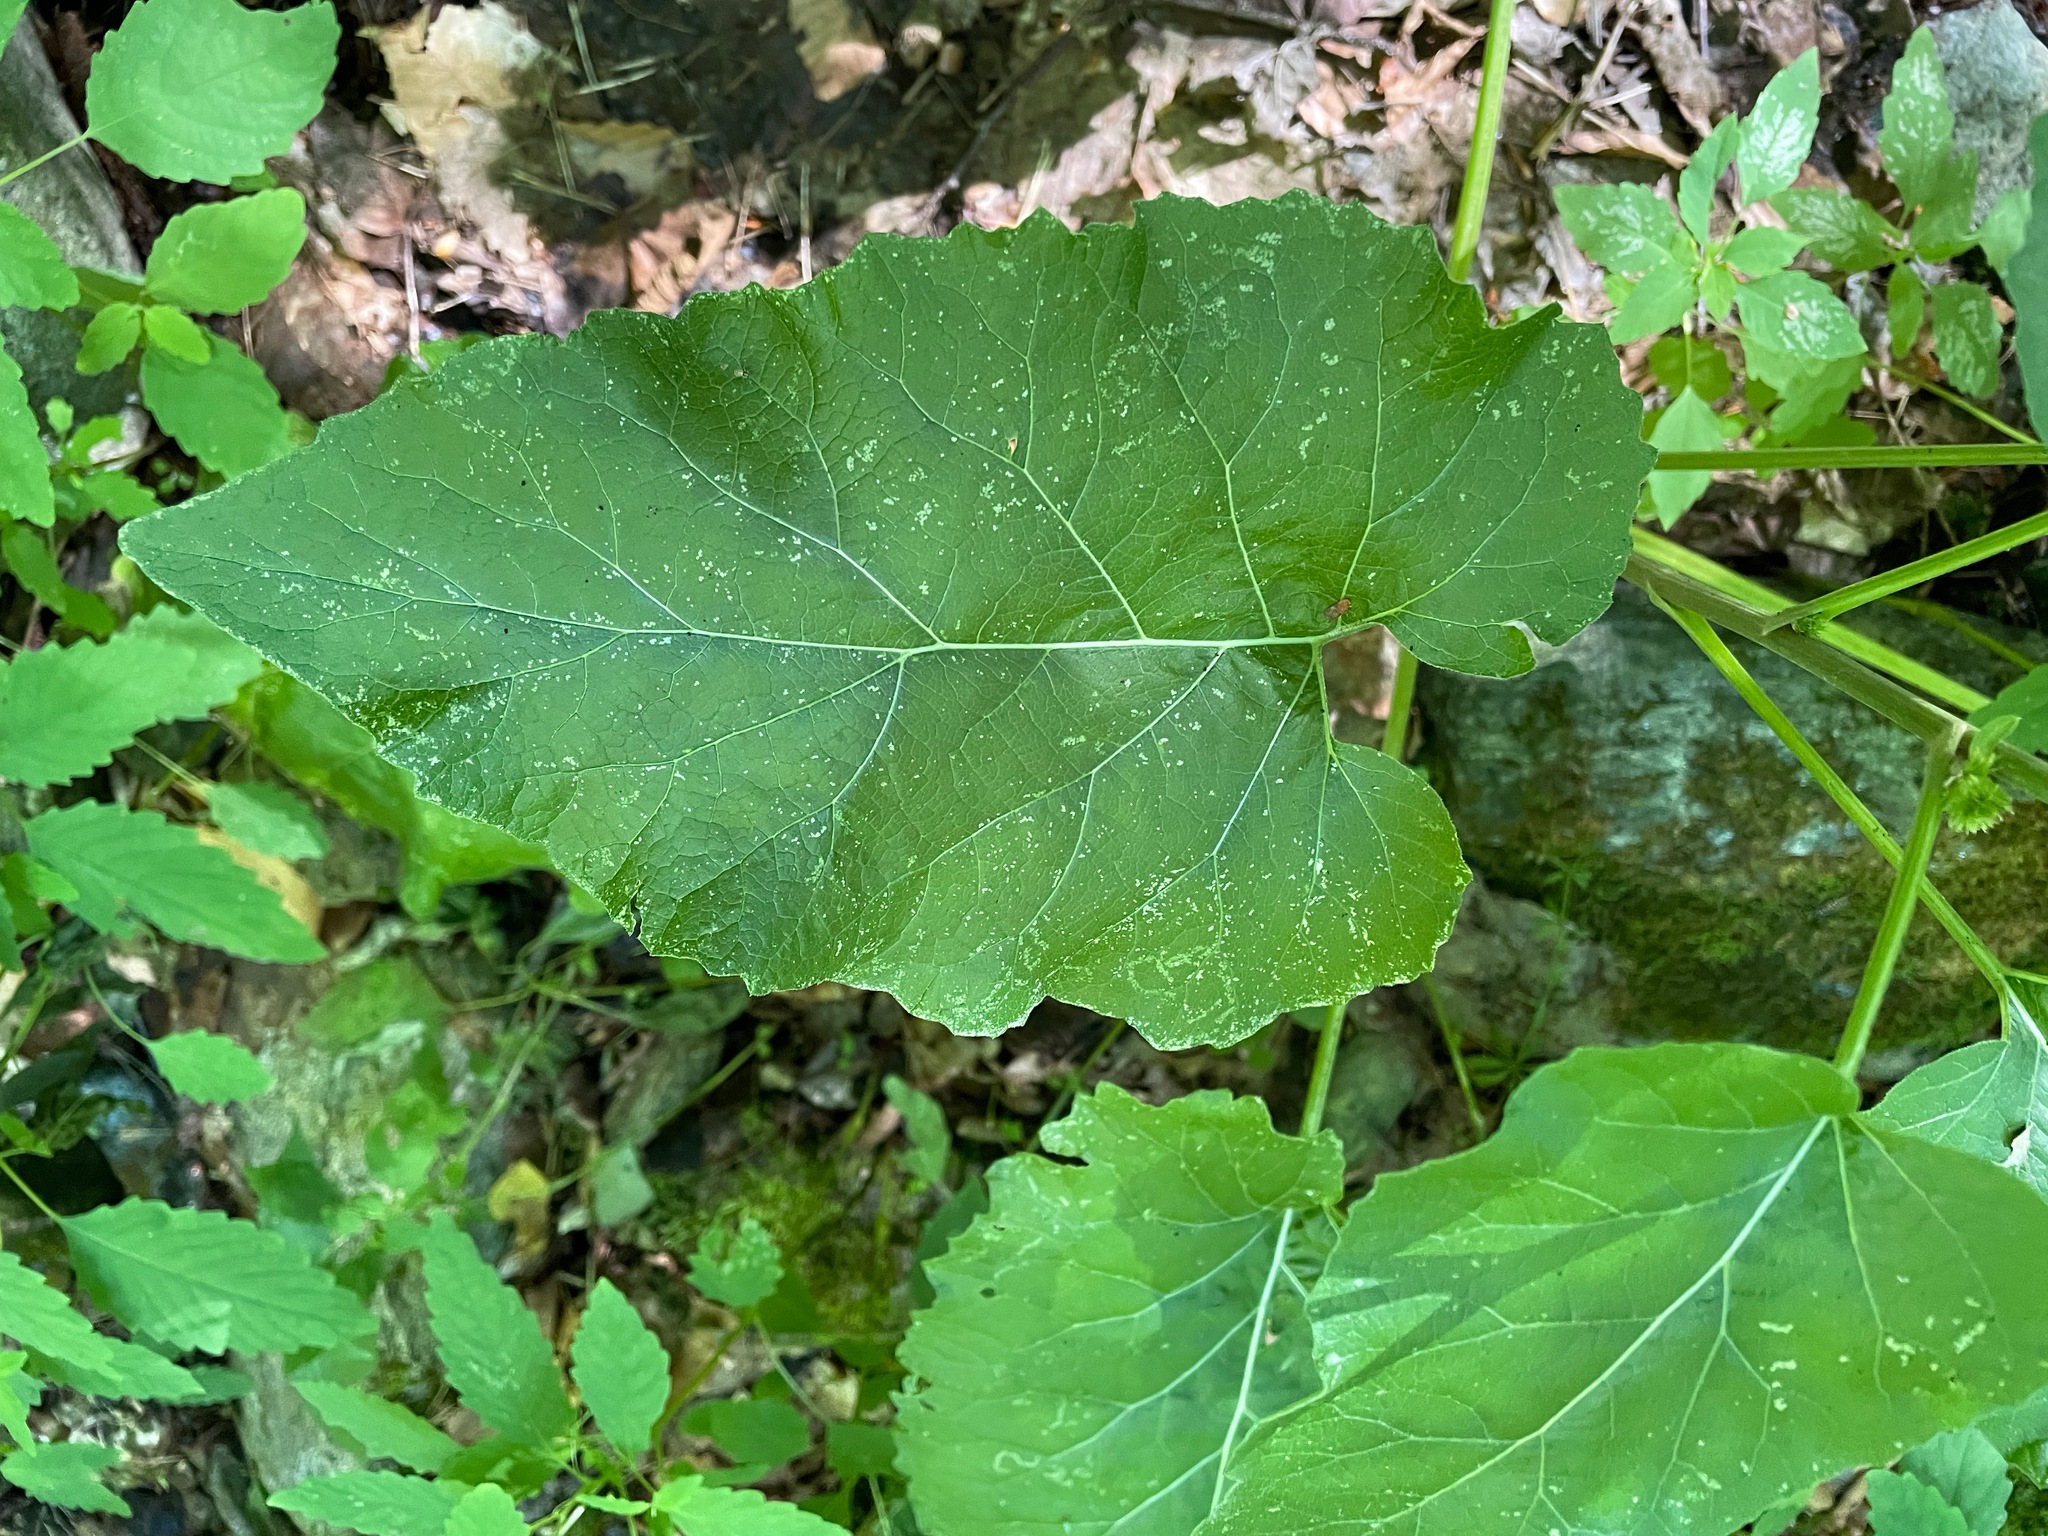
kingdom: Plantae
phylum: Tracheophyta
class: Magnoliopsida
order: Asterales
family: Asteraceae
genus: Arctium
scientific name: Arctium minus
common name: Lesser burdock
